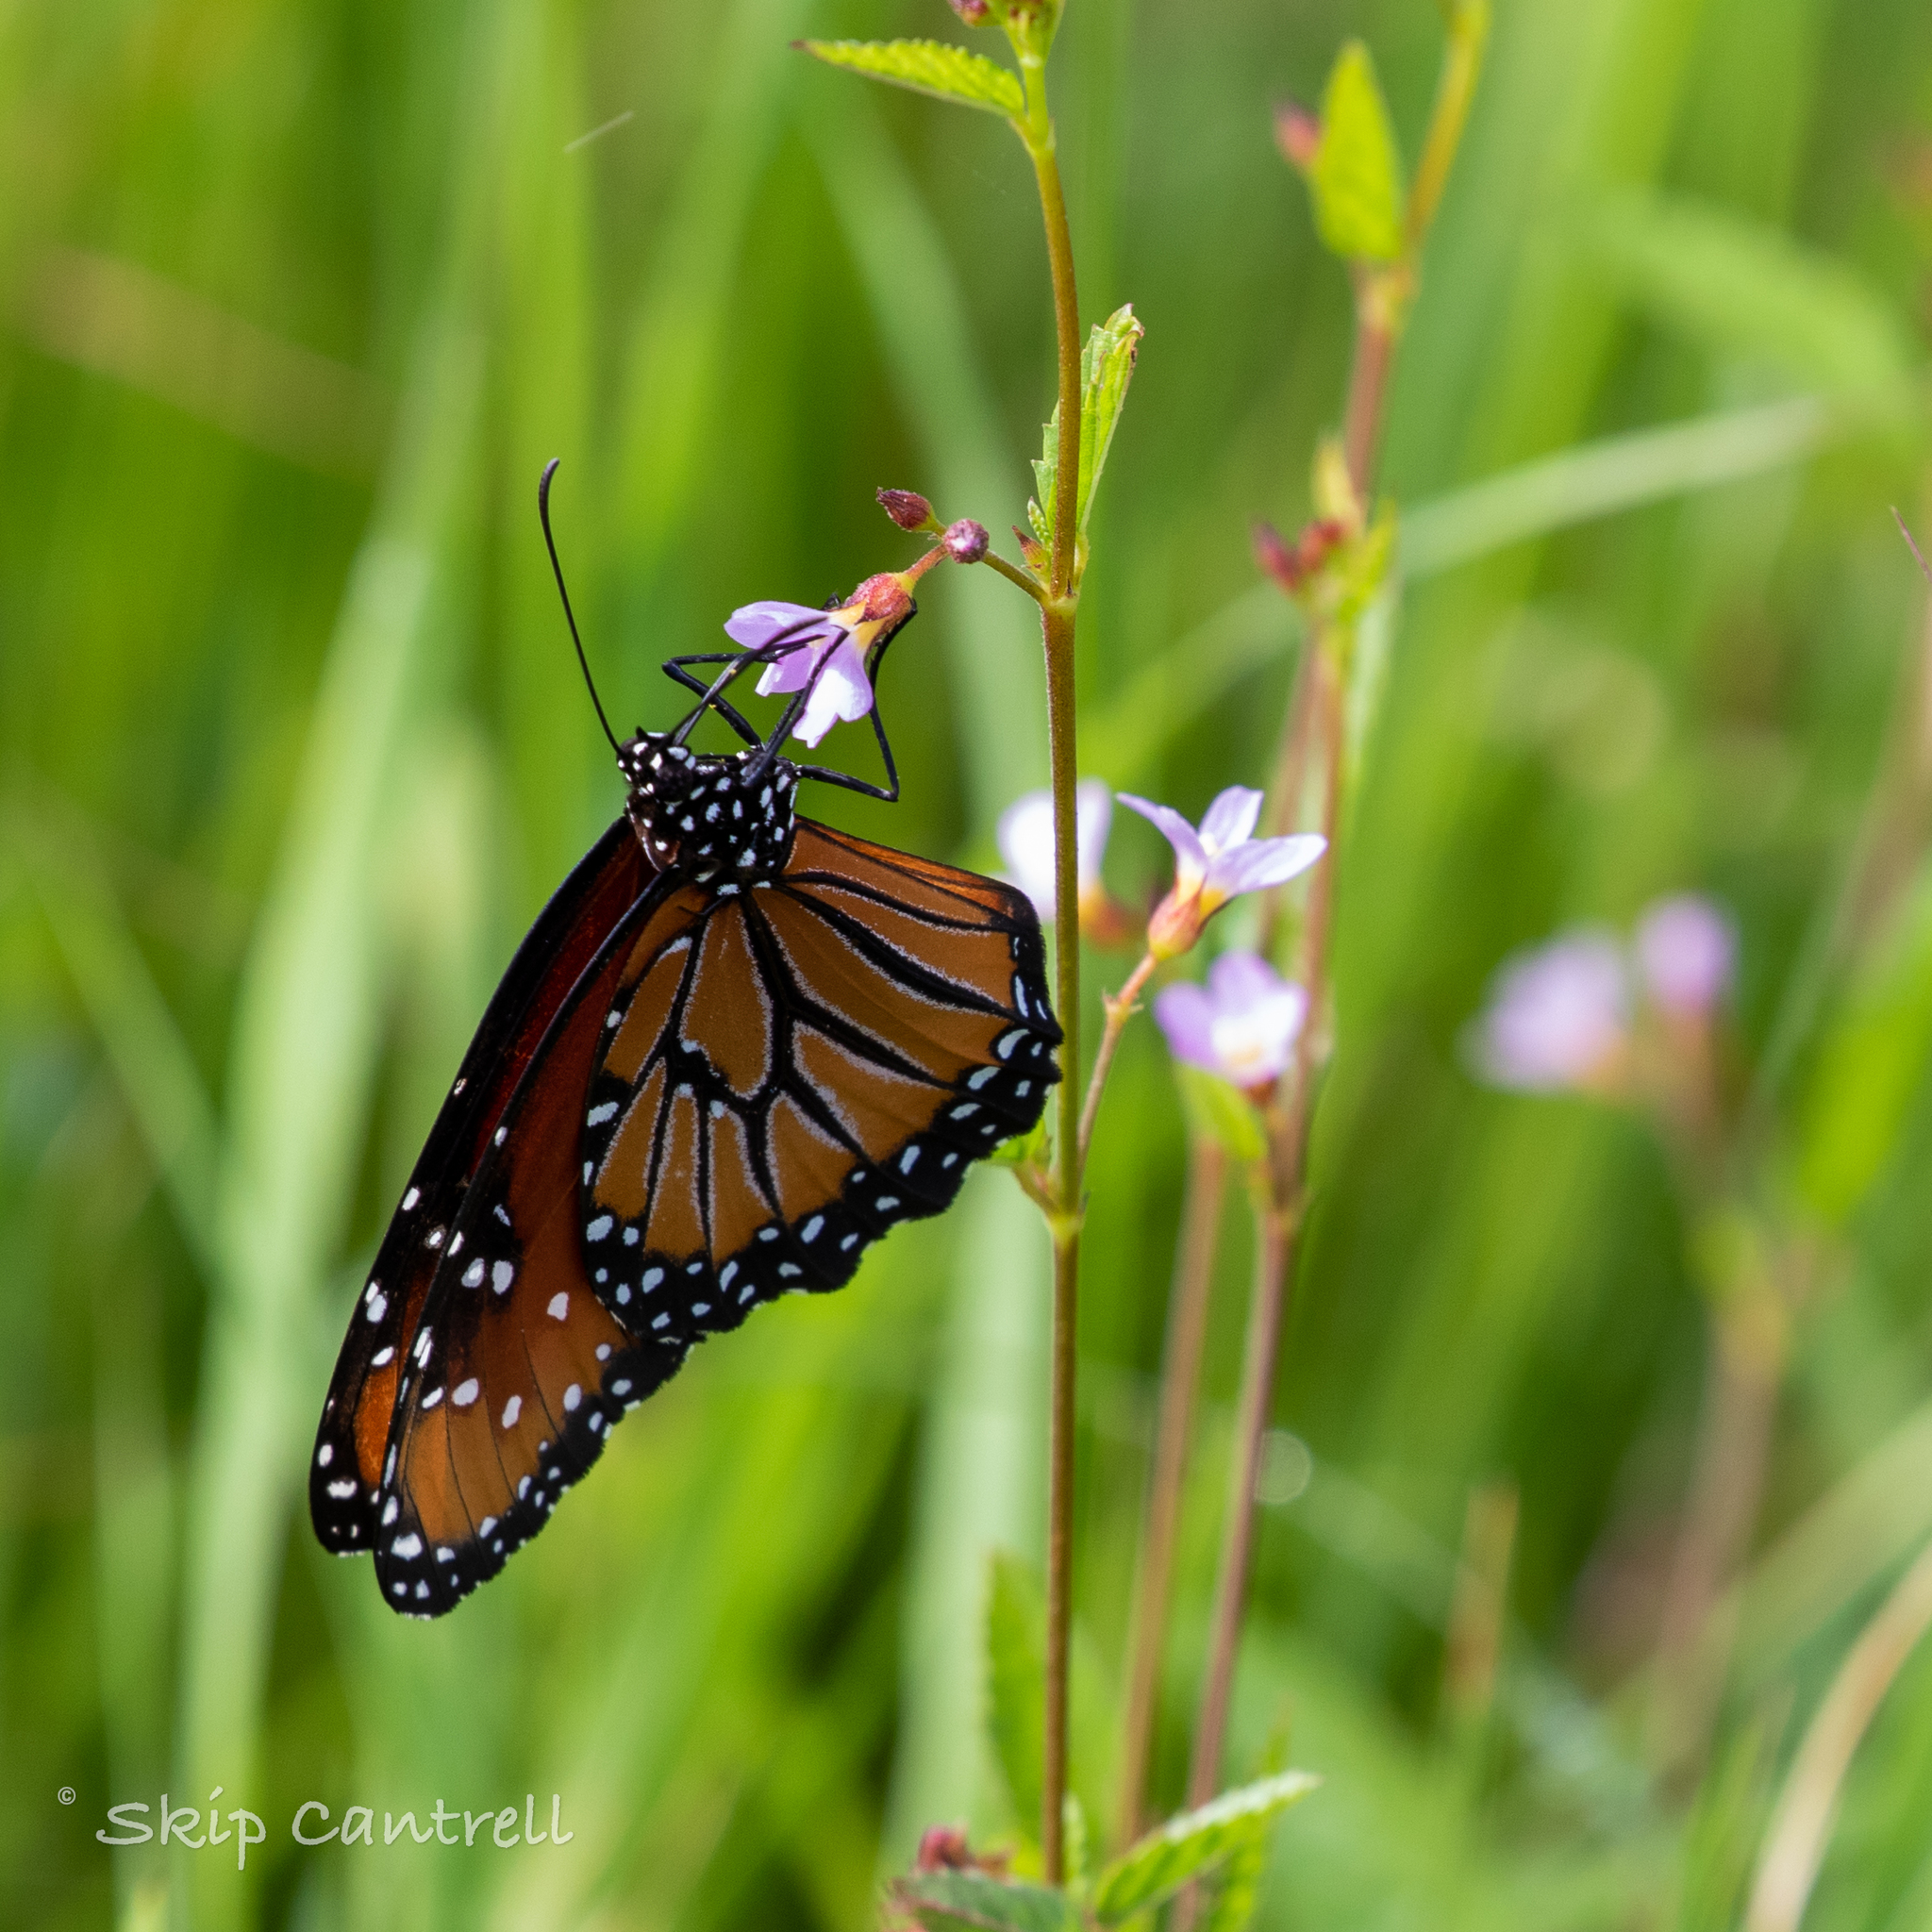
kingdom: Animalia
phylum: Arthropoda
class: Insecta
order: Lepidoptera
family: Nymphalidae
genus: Danaus
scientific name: Danaus gilippus
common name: Queen
